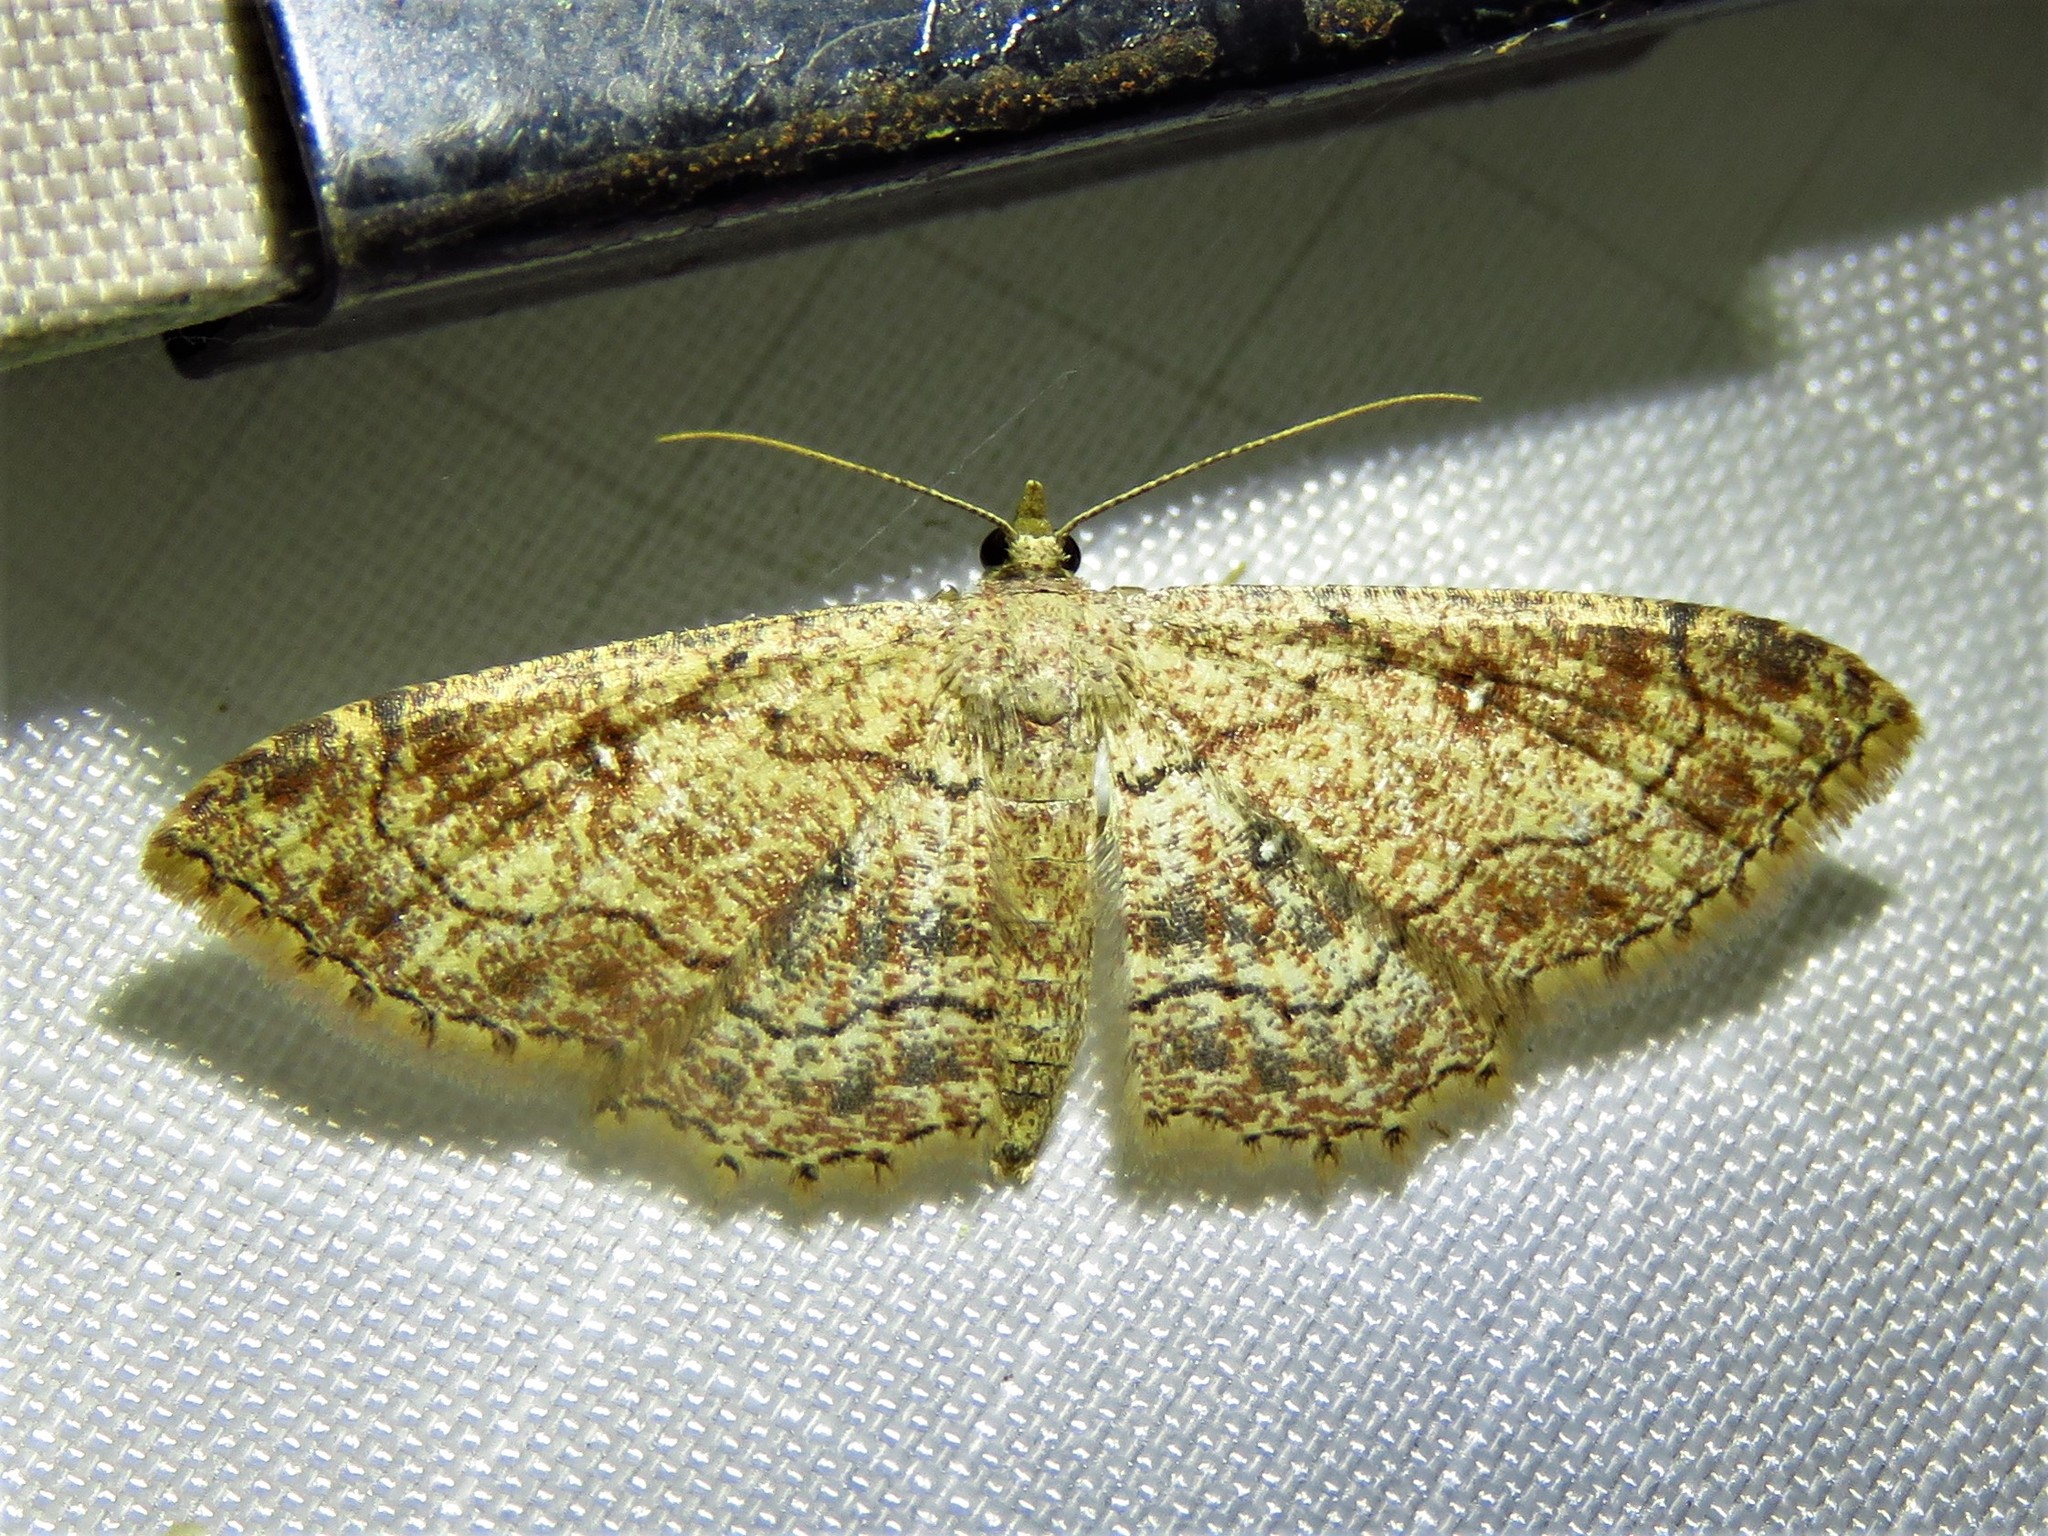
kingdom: Animalia
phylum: Arthropoda
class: Insecta
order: Lepidoptera
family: Geometridae
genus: Cyclophora
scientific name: Cyclophora nanaria
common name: Cankerworm
